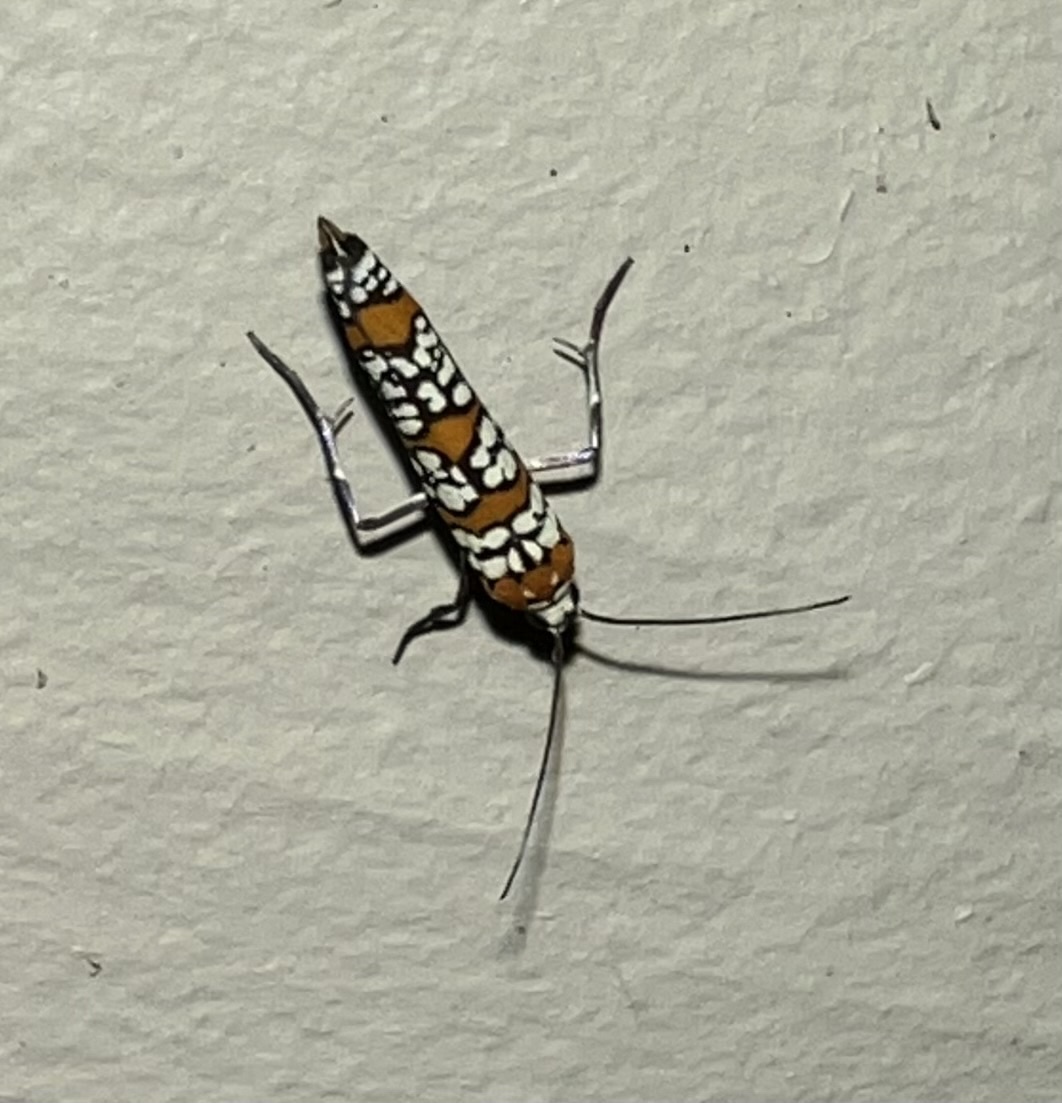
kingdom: Animalia
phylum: Arthropoda
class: Insecta
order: Lepidoptera
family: Attevidae
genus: Atteva
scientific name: Atteva punctella
